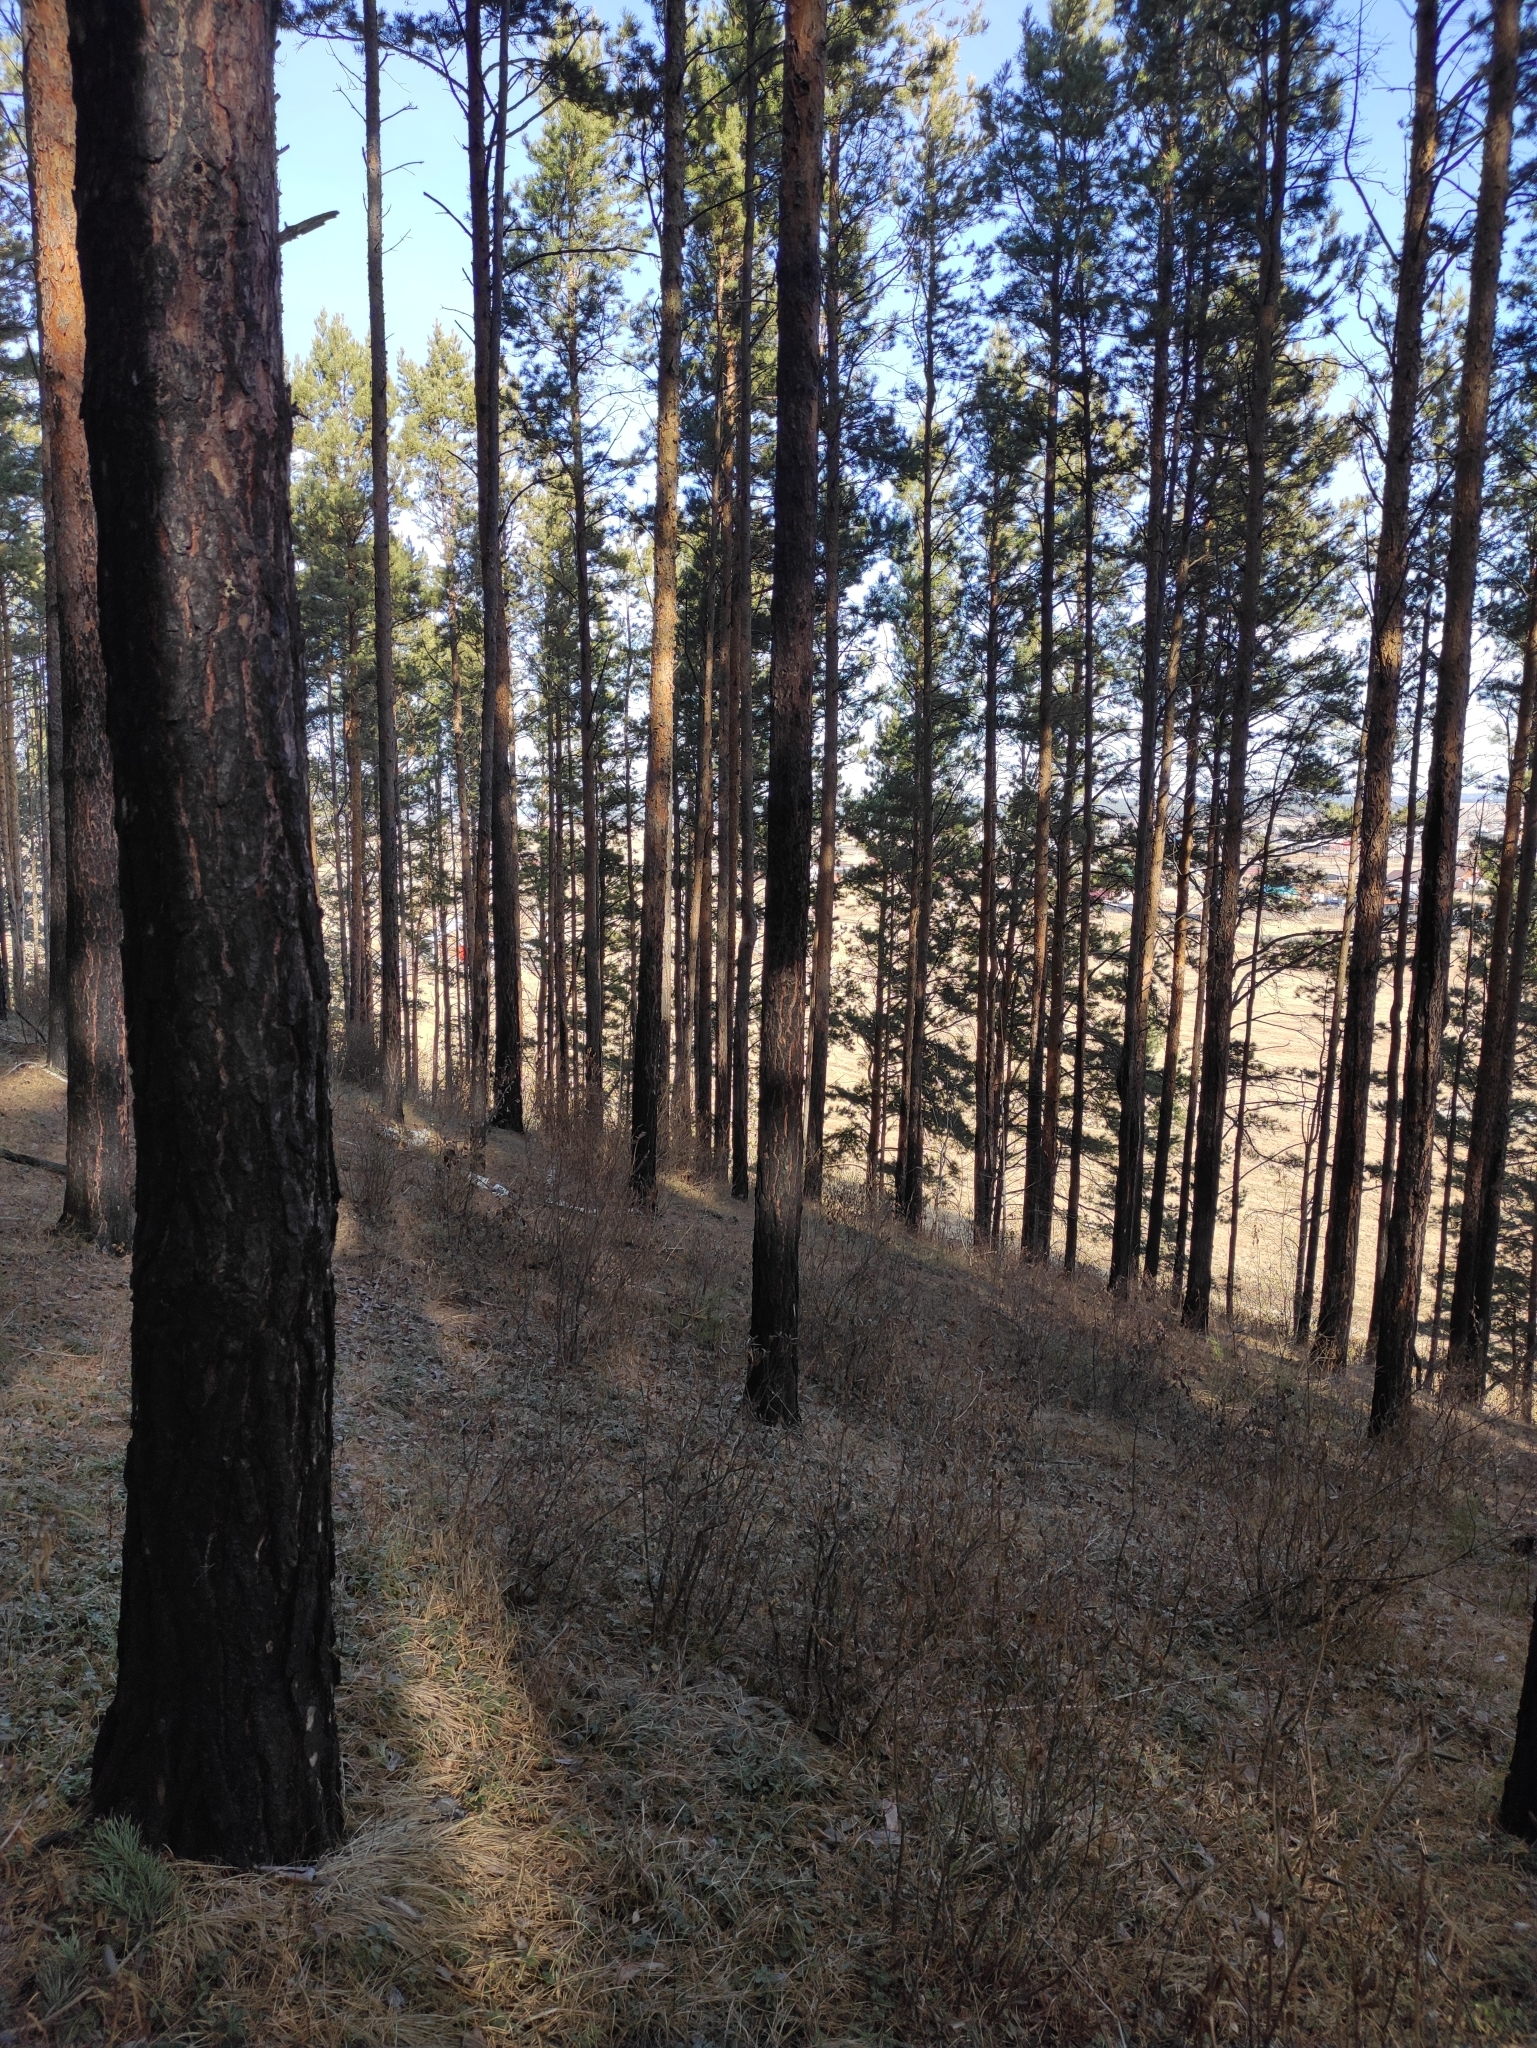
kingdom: Plantae
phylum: Tracheophyta
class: Pinopsida
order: Pinales
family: Pinaceae
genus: Pinus
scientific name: Pinus sylvestris
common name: Scots pine
